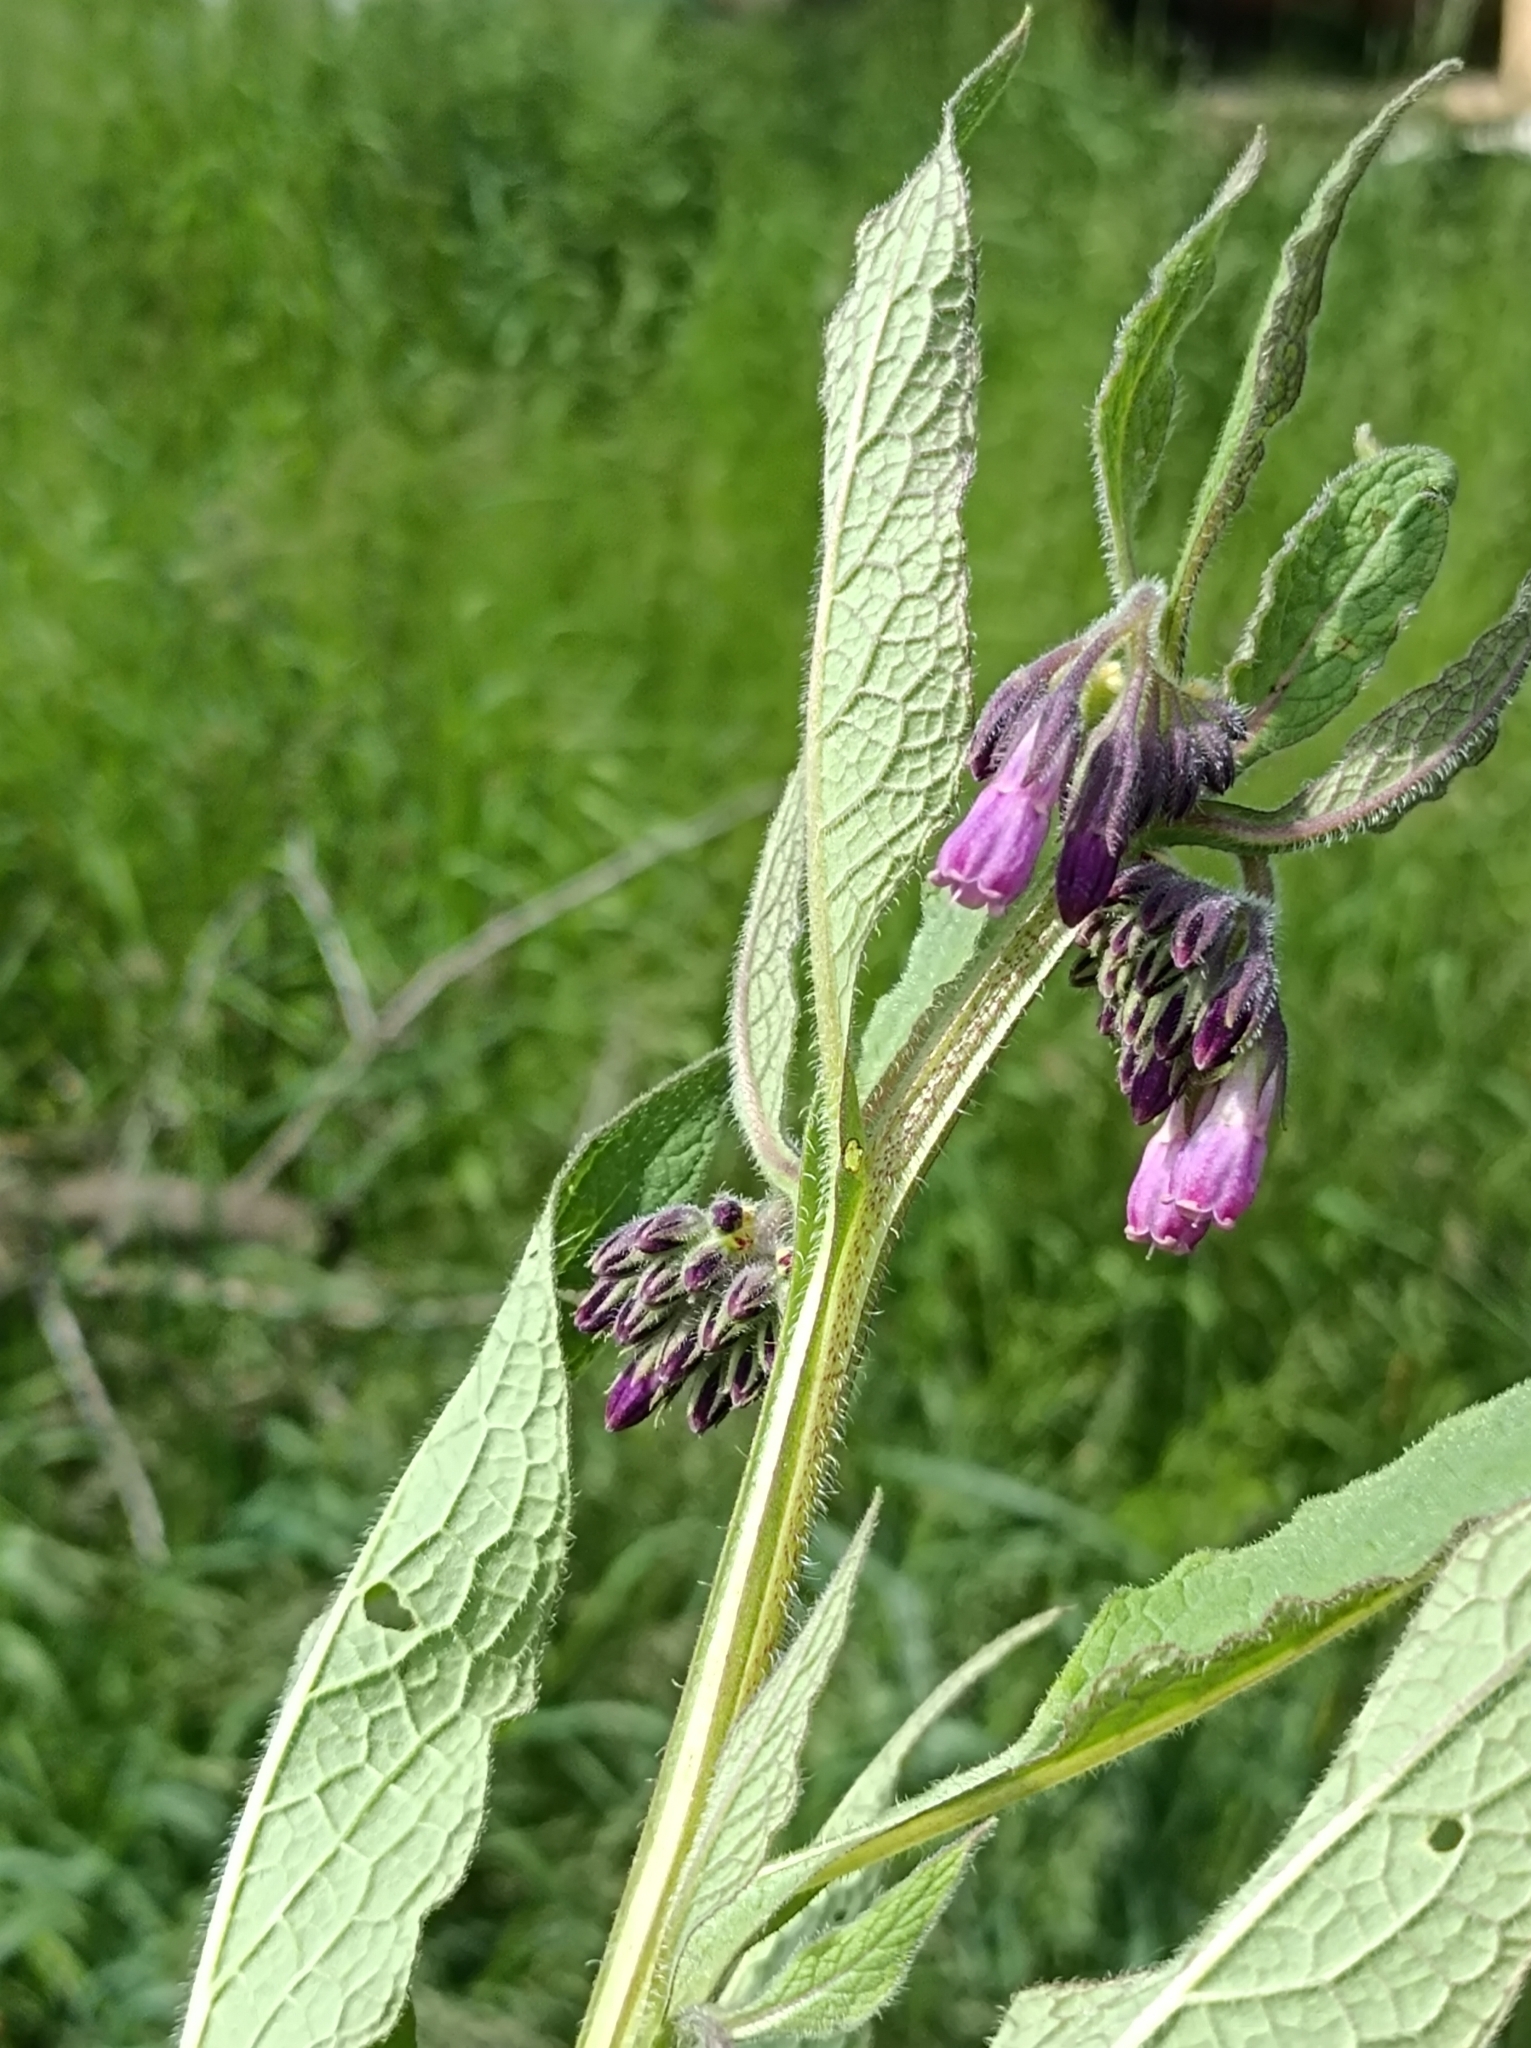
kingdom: Plantae
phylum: Tracheophyta
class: Magnoliopsida
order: Boraginales
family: Boraginaceae
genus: Symphytum
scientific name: Symphytum officinale
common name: Common comfrey
